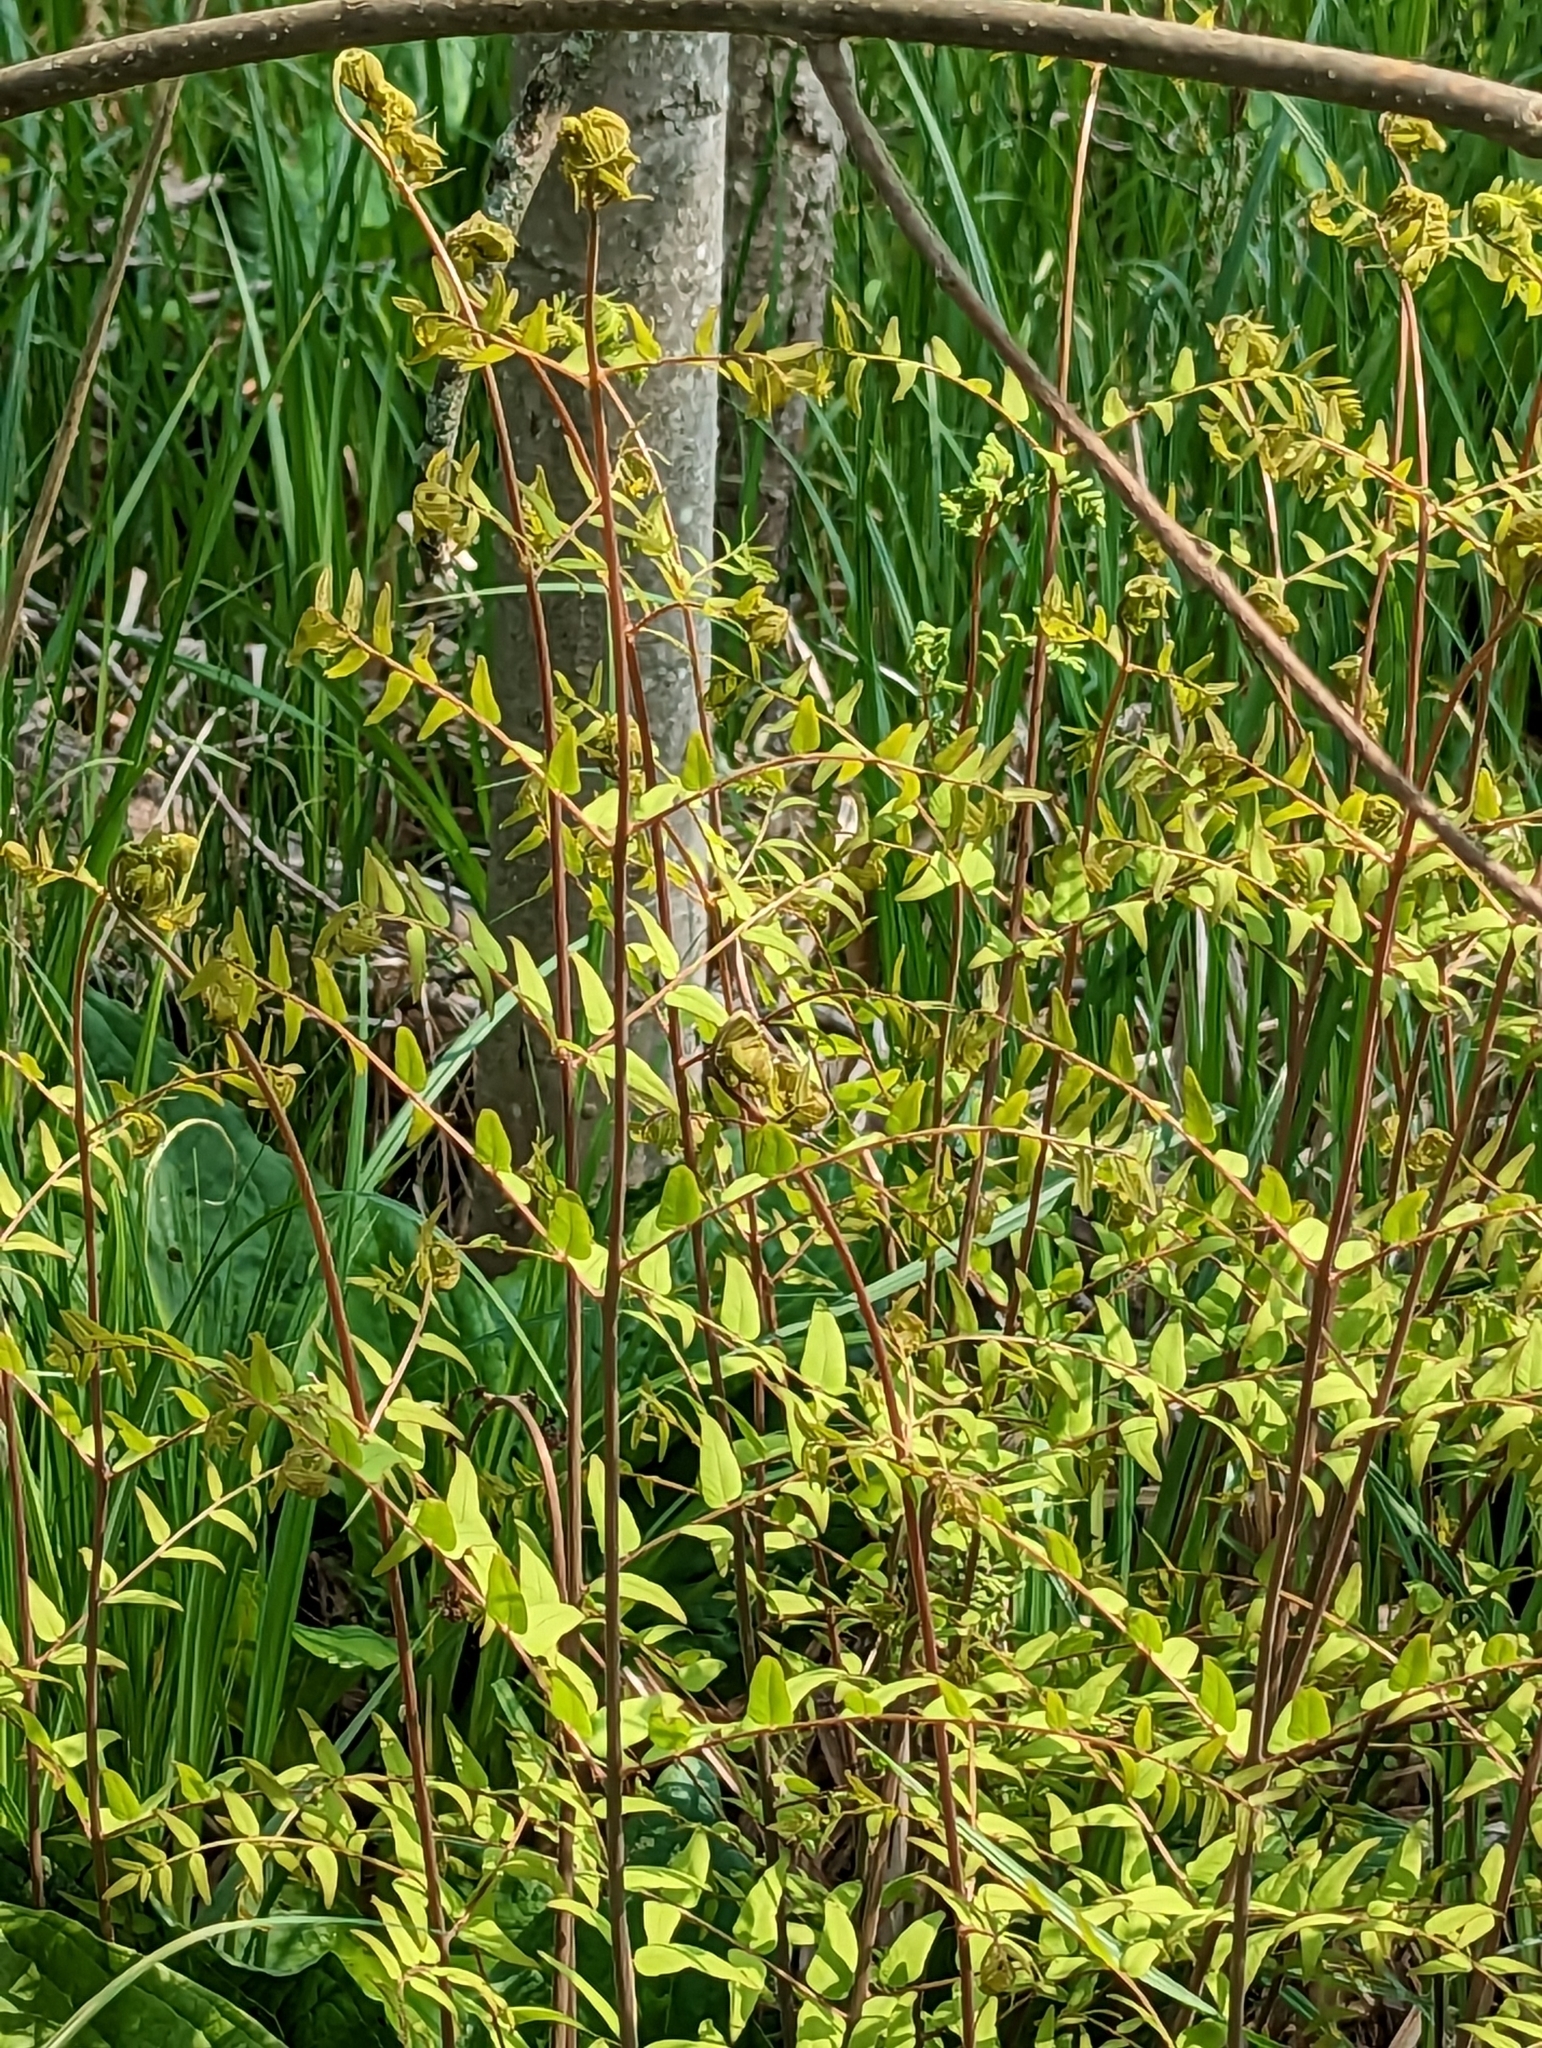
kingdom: Plantae
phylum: Tracheophyta
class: Polypodiopsida
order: Osmundales
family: Osmundaceae
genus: Osmunda
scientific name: Osmunda spectabilis
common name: American royal fern
